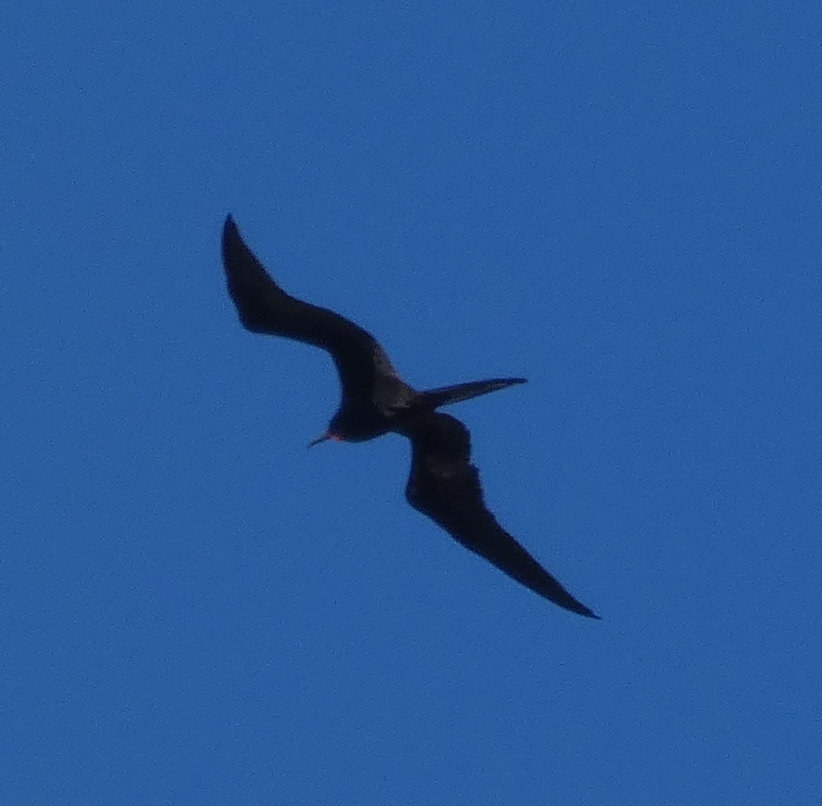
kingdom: Animalia
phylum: Chordata
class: Aves
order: Suliformes
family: Fregatidae
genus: Fregata
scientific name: Fregata magnificens
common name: Magnificent frigatebird
